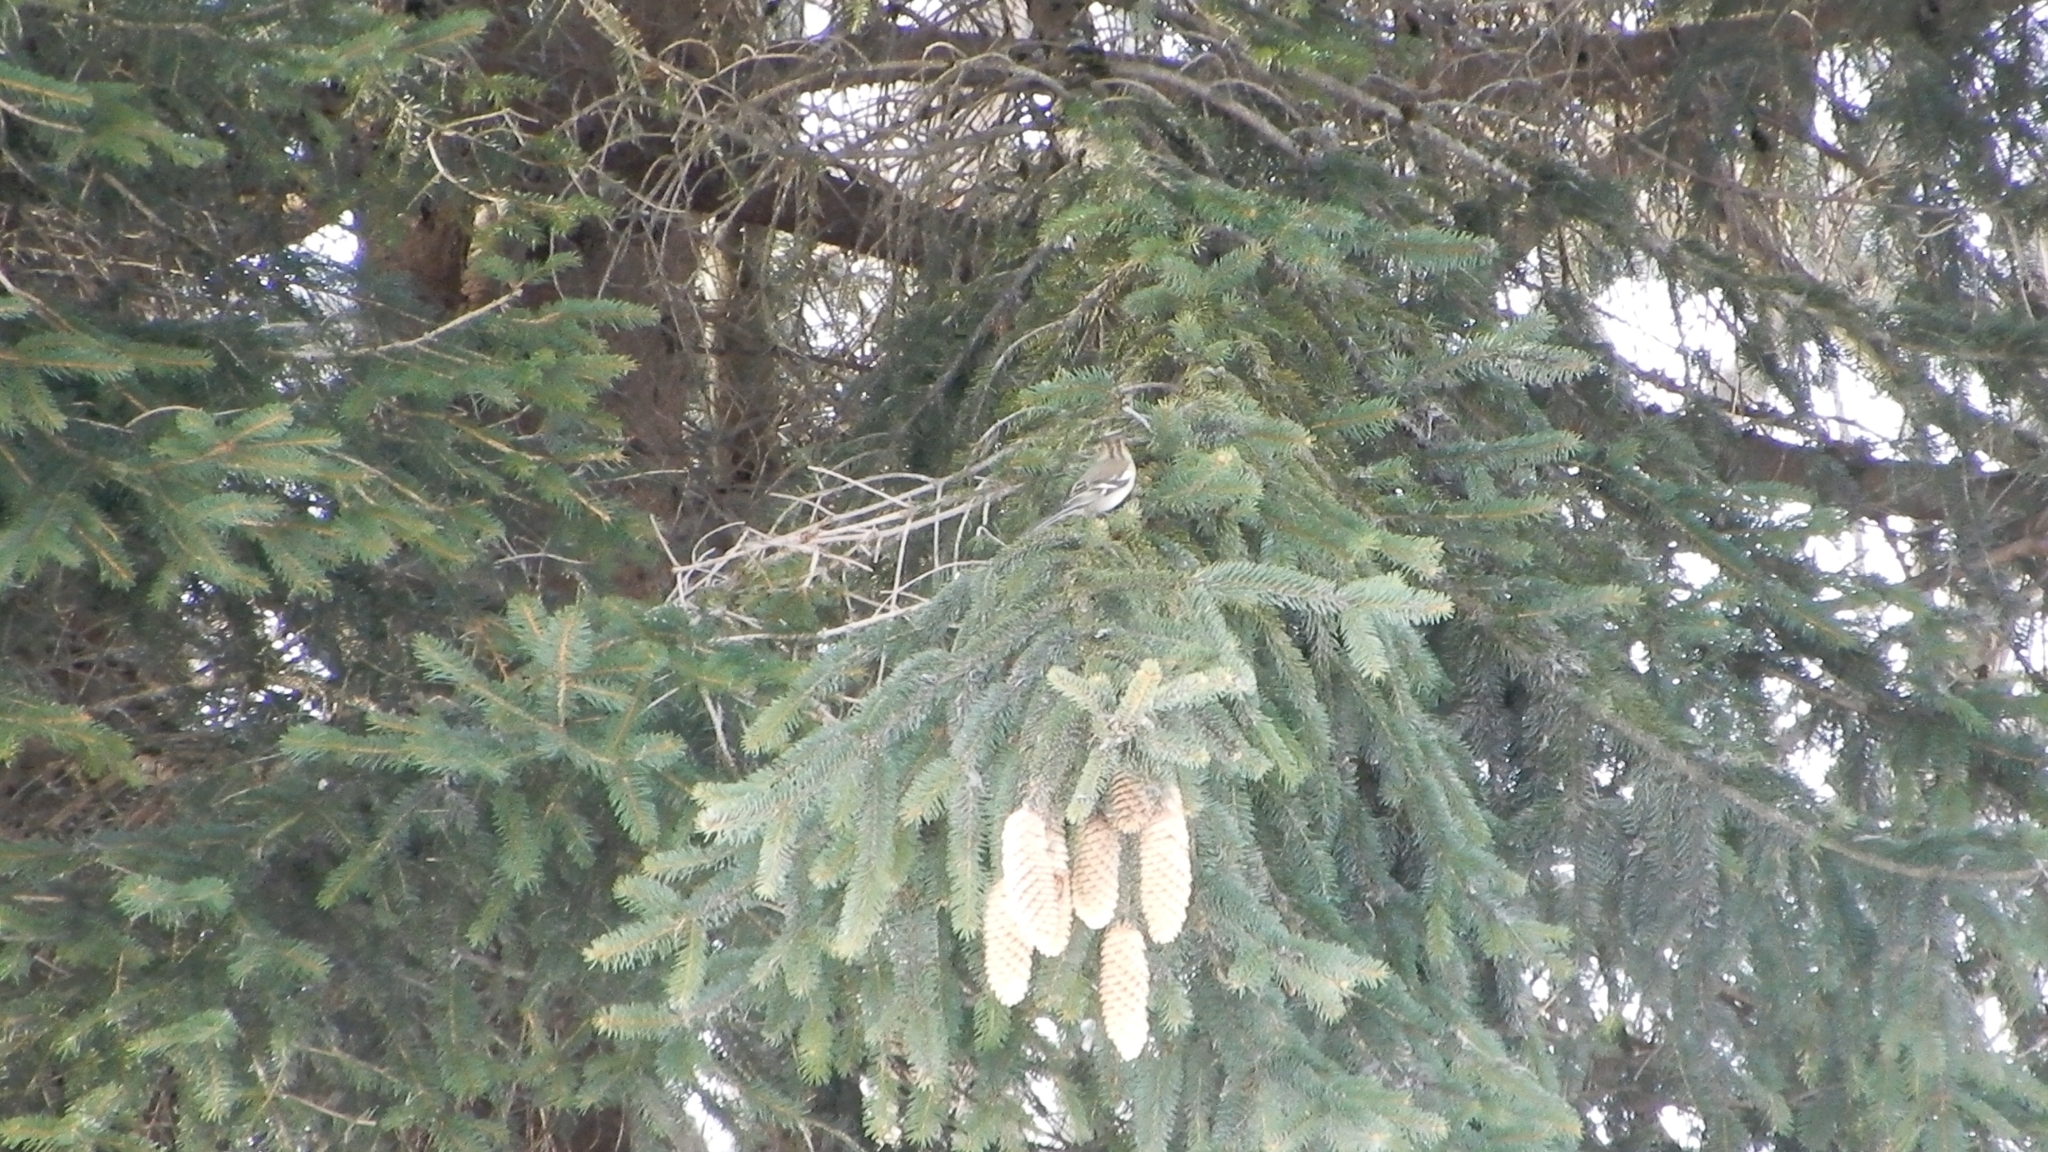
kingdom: Animalia
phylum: Chordata
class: Aves
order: Passeriformes
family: Fringillidae
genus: Fringilla
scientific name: Fringilla coelebs
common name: Common chaffinch
